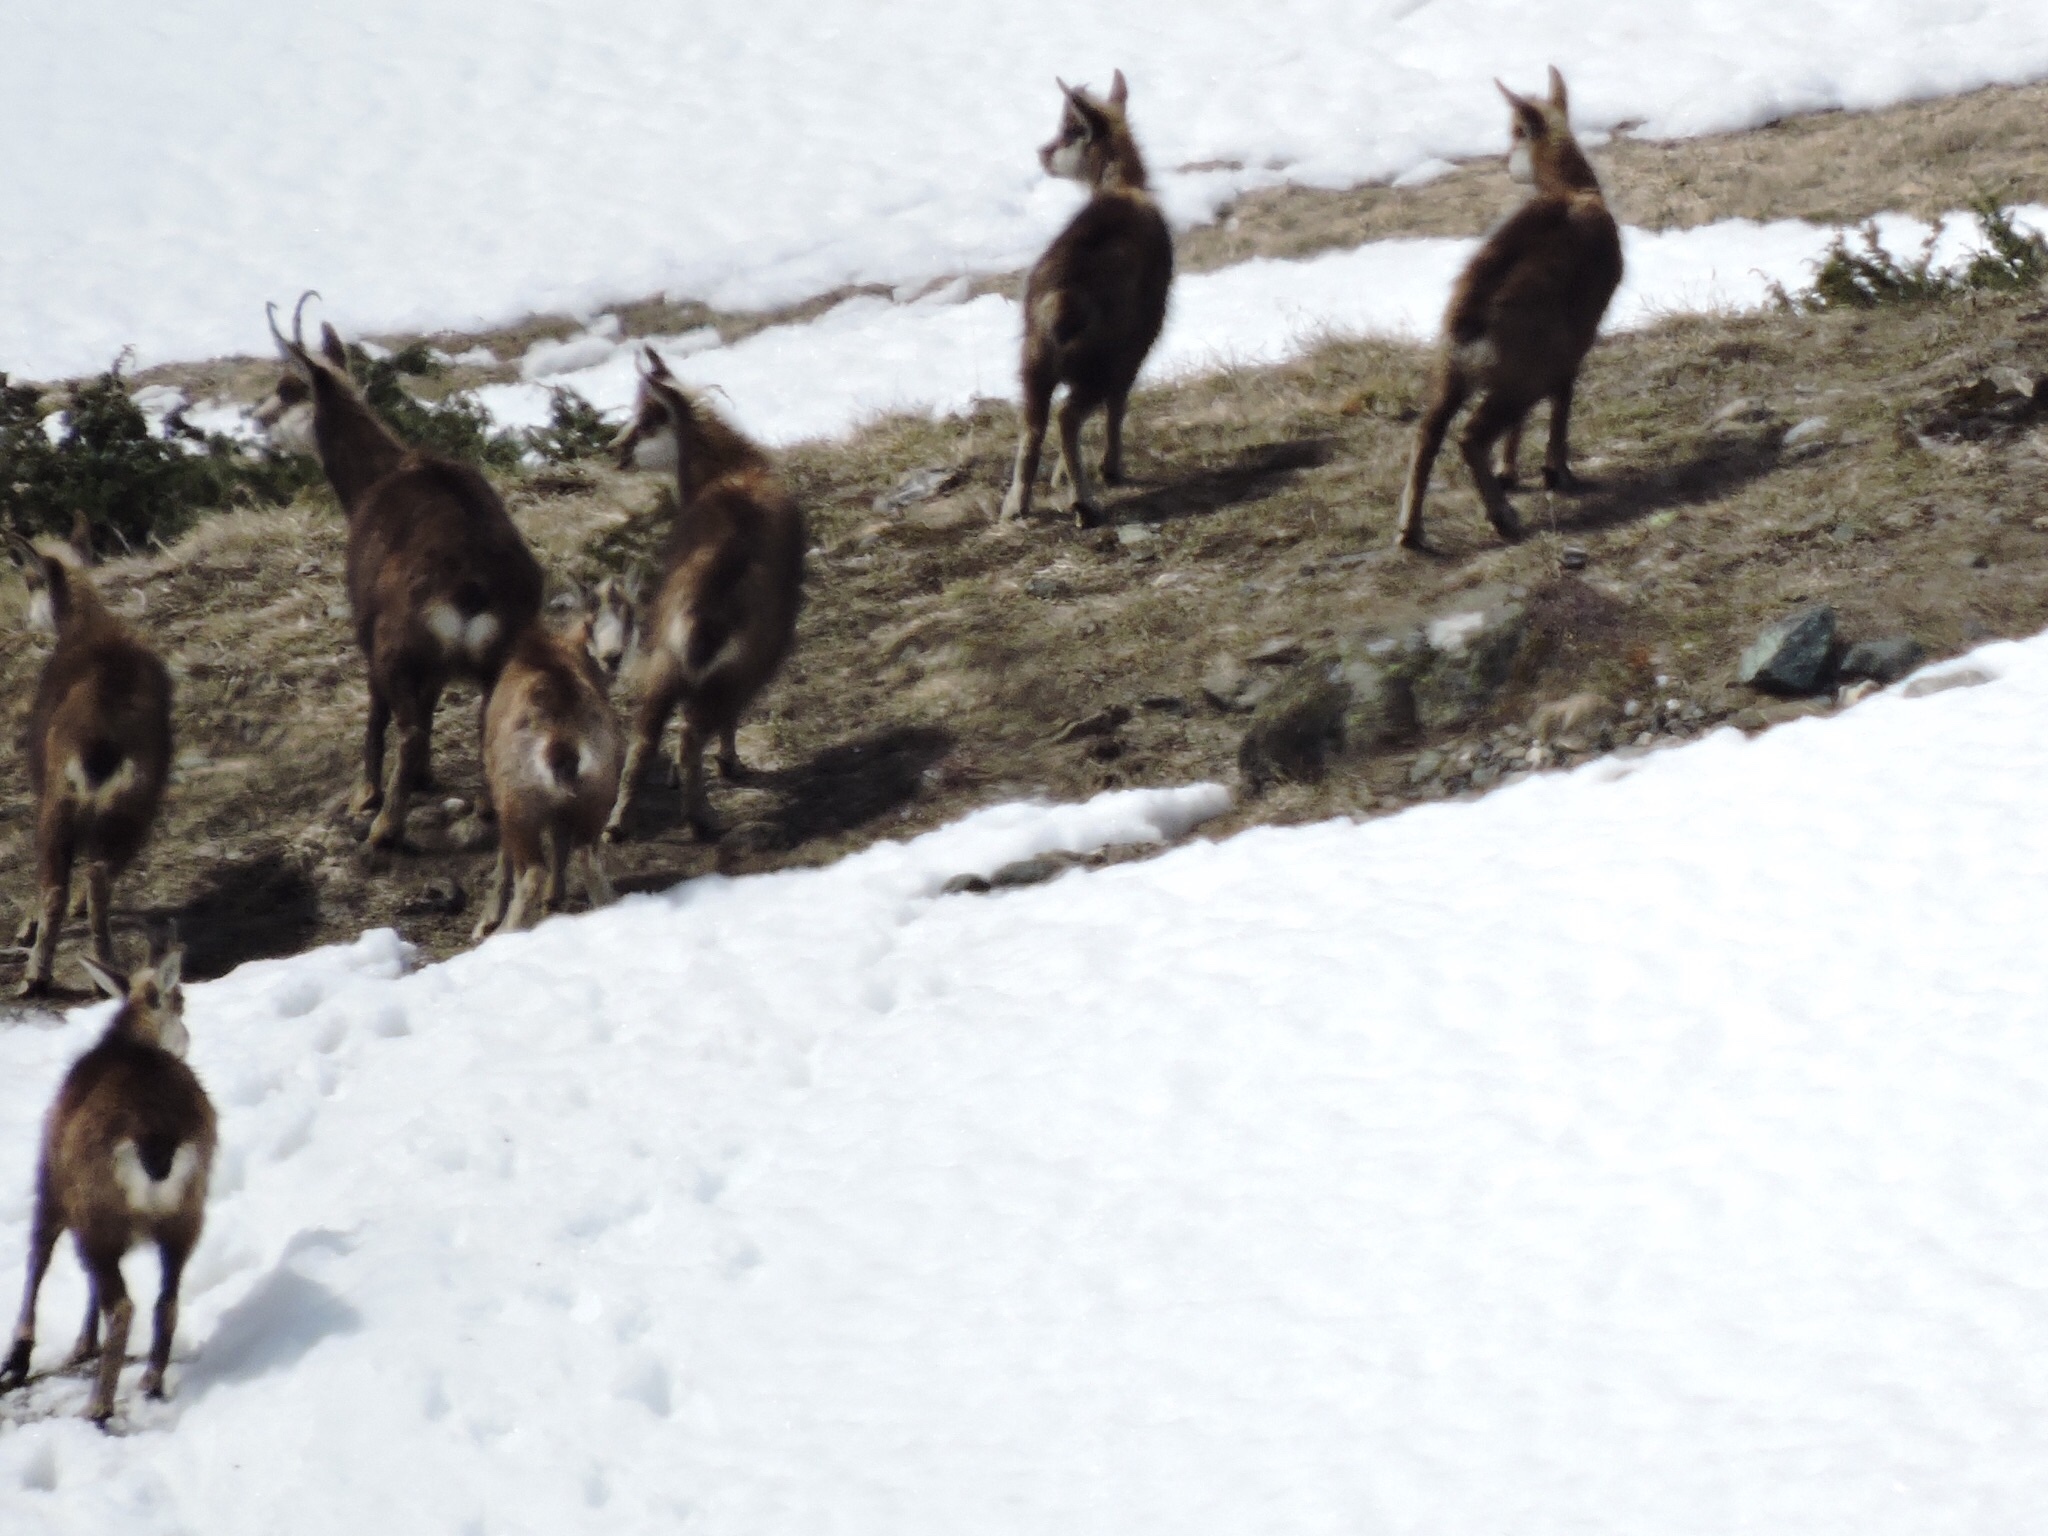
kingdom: Animalia
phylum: Chordata
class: Mammalia
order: Artiodactyla
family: Bovidae
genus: Rupicapra
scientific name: Rupicapra rupicapra
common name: Chamois
